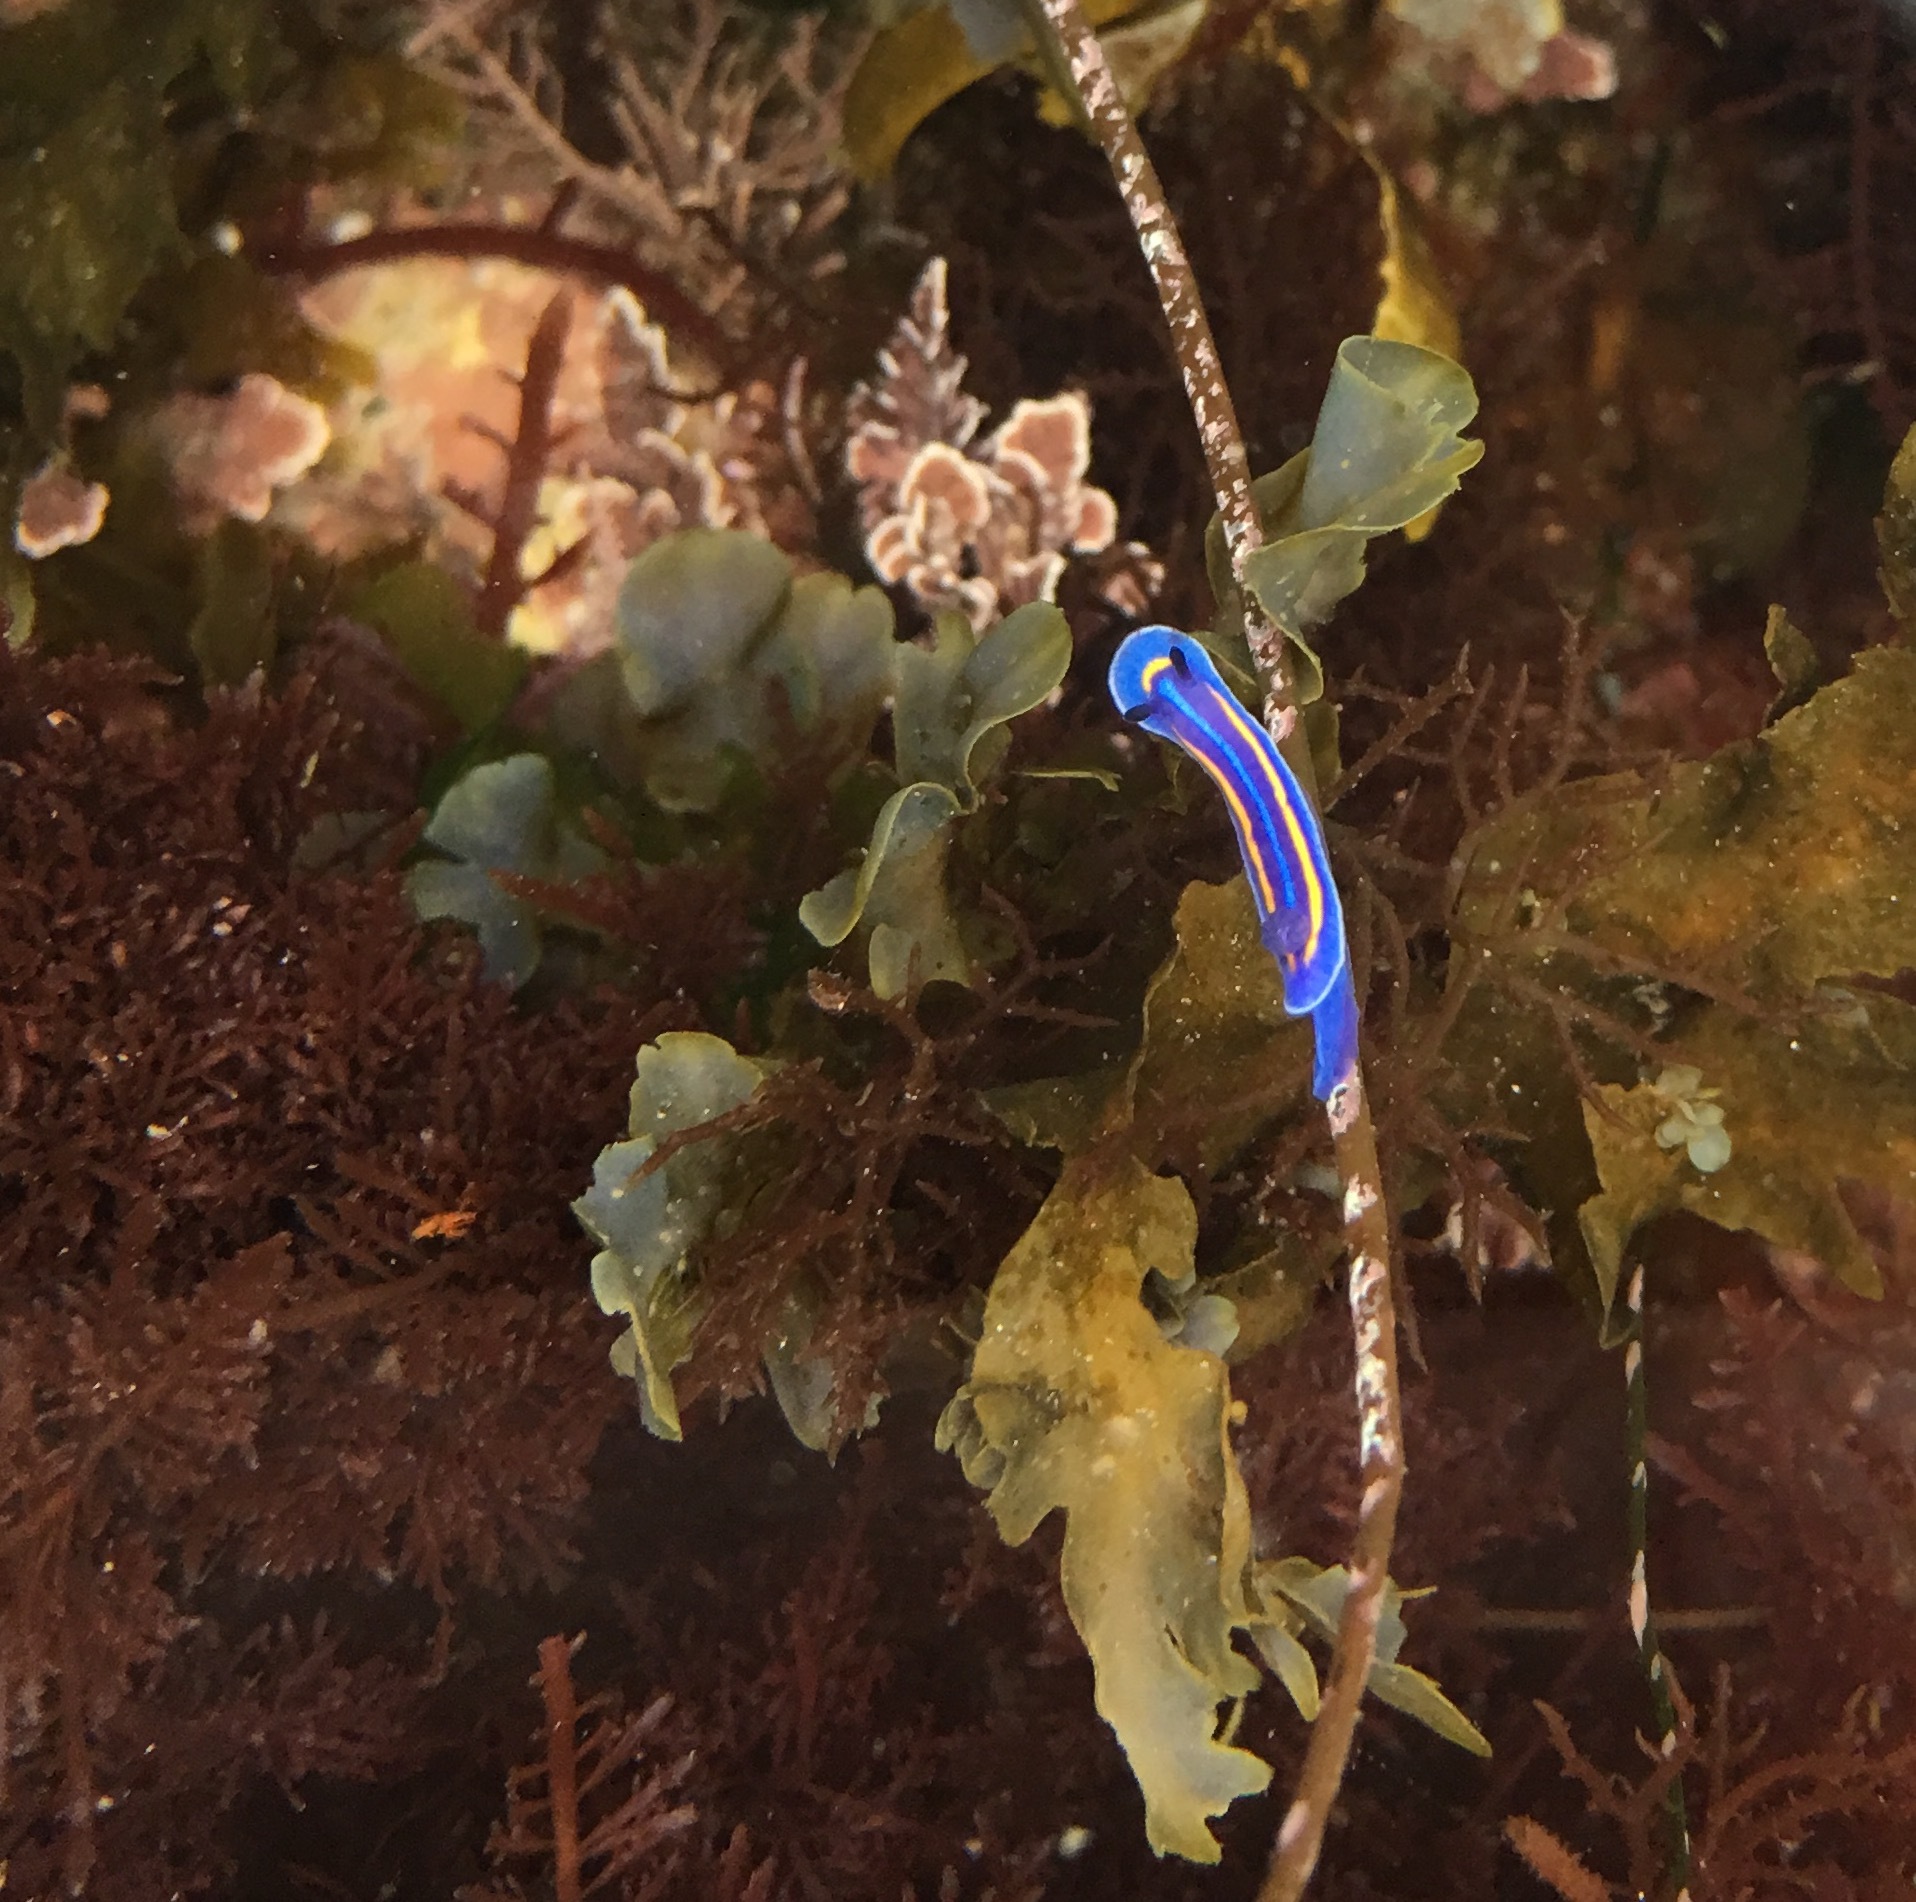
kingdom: Animalia
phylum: Mollusca
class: Gastropoda
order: Nudibranchia
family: Chromodorididae
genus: Felimare
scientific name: Felimare porterae
